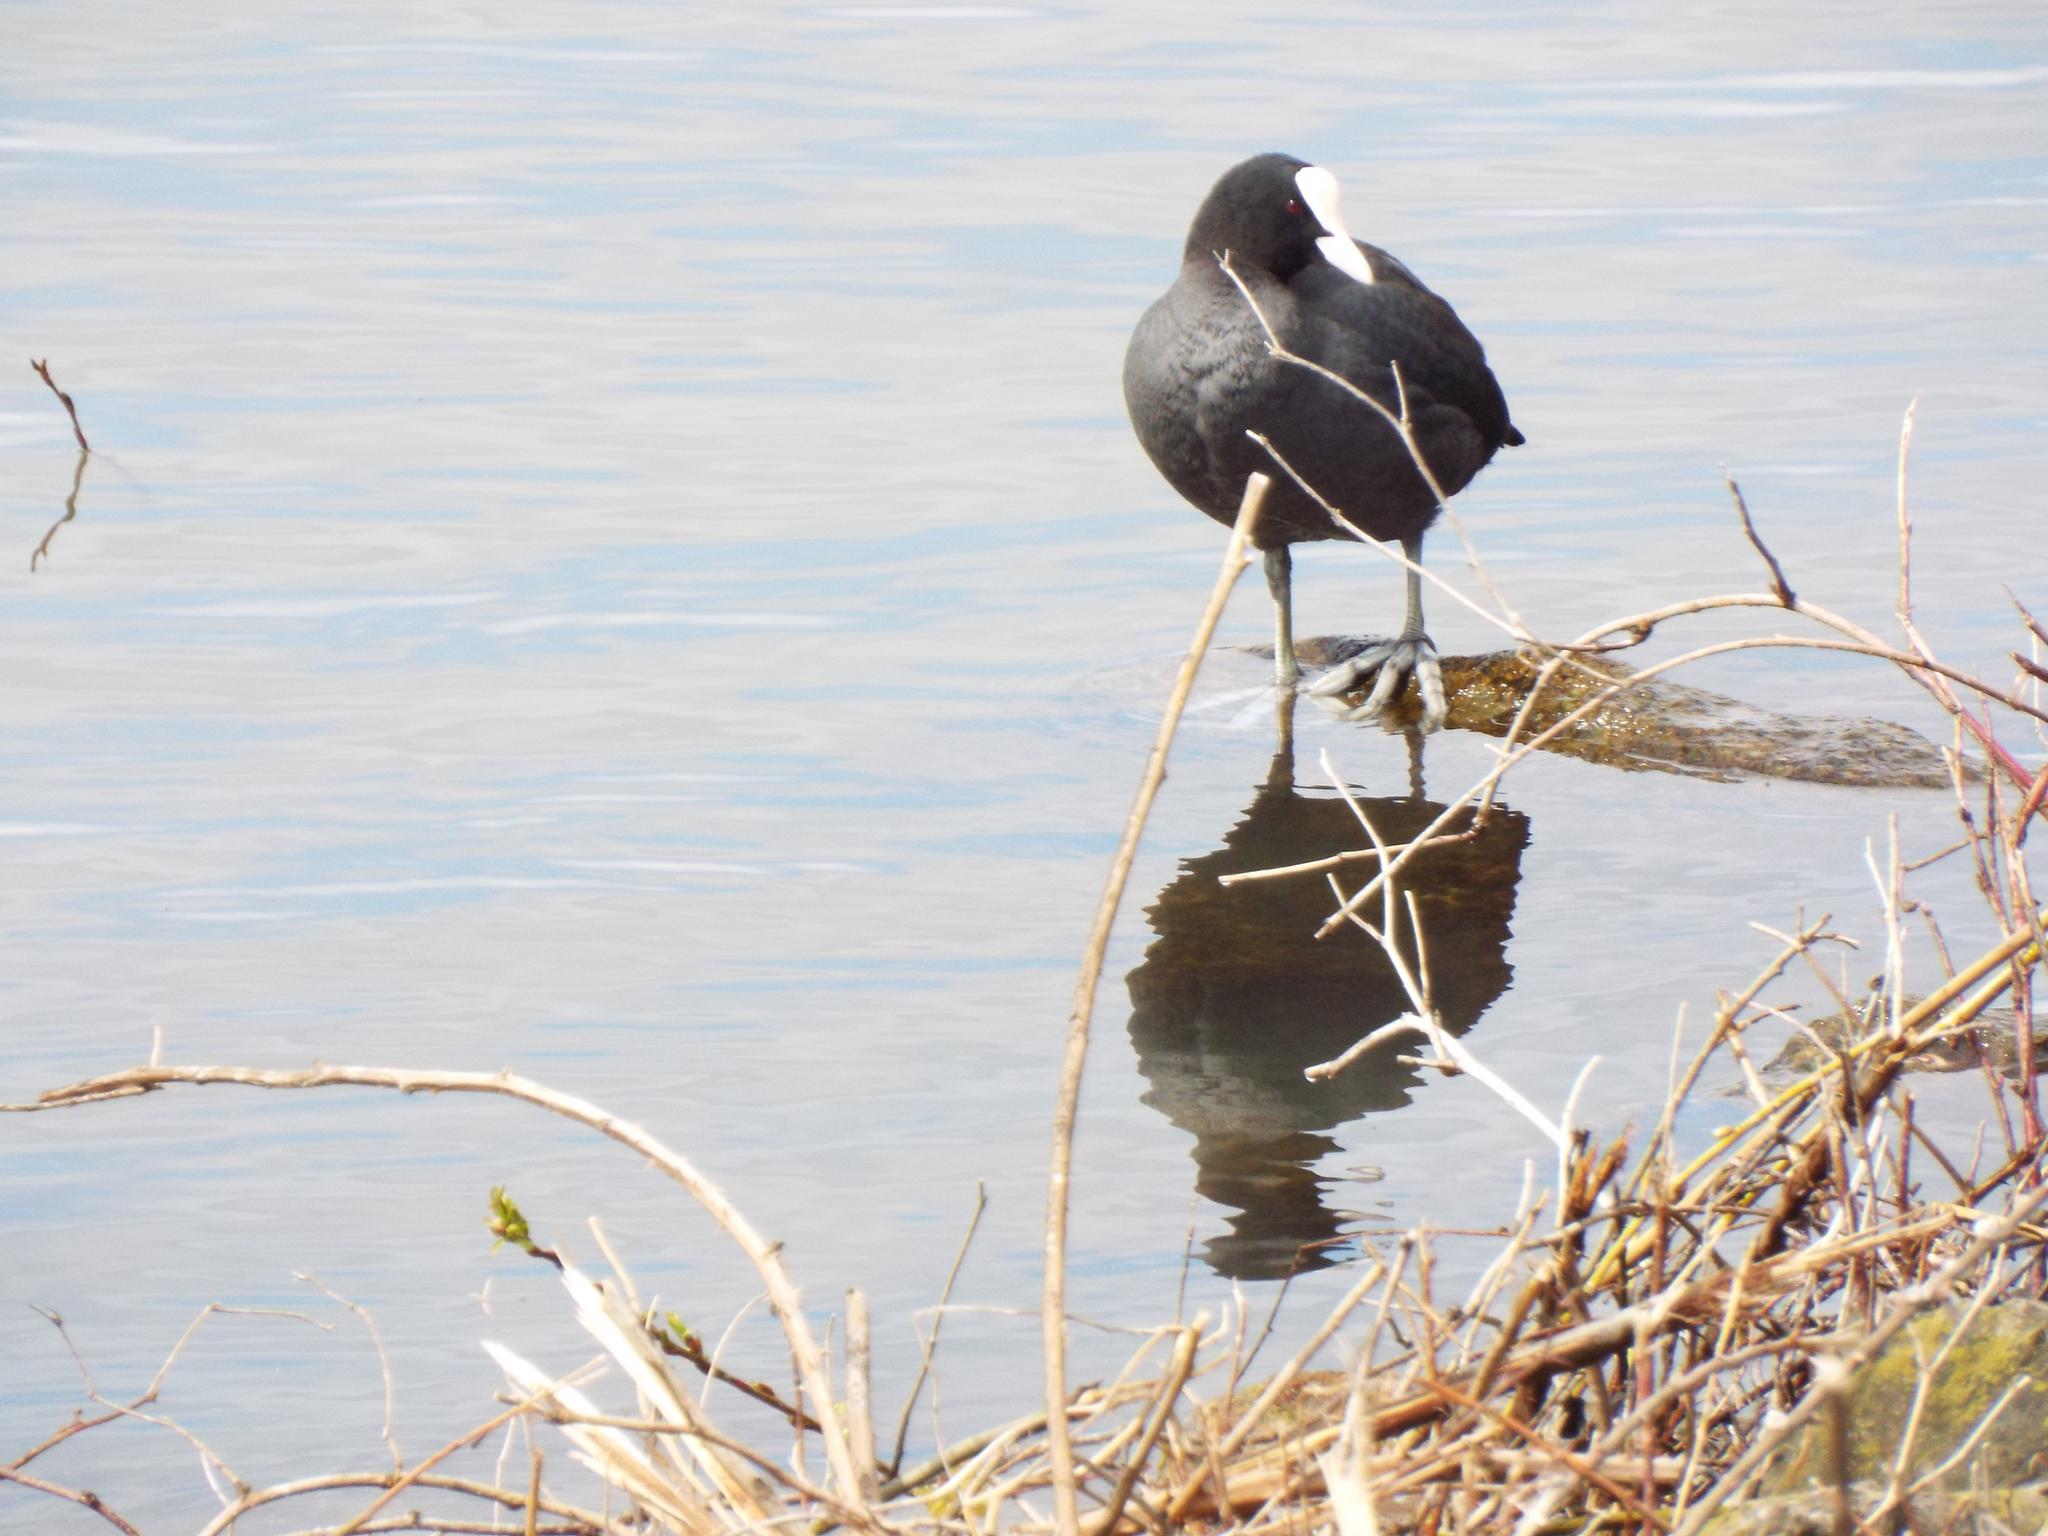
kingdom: Animalia
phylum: Chordata
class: Aves
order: Gruiformes
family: Rallidae
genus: Fulica
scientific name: Fulica atra
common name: Eurasian coot
